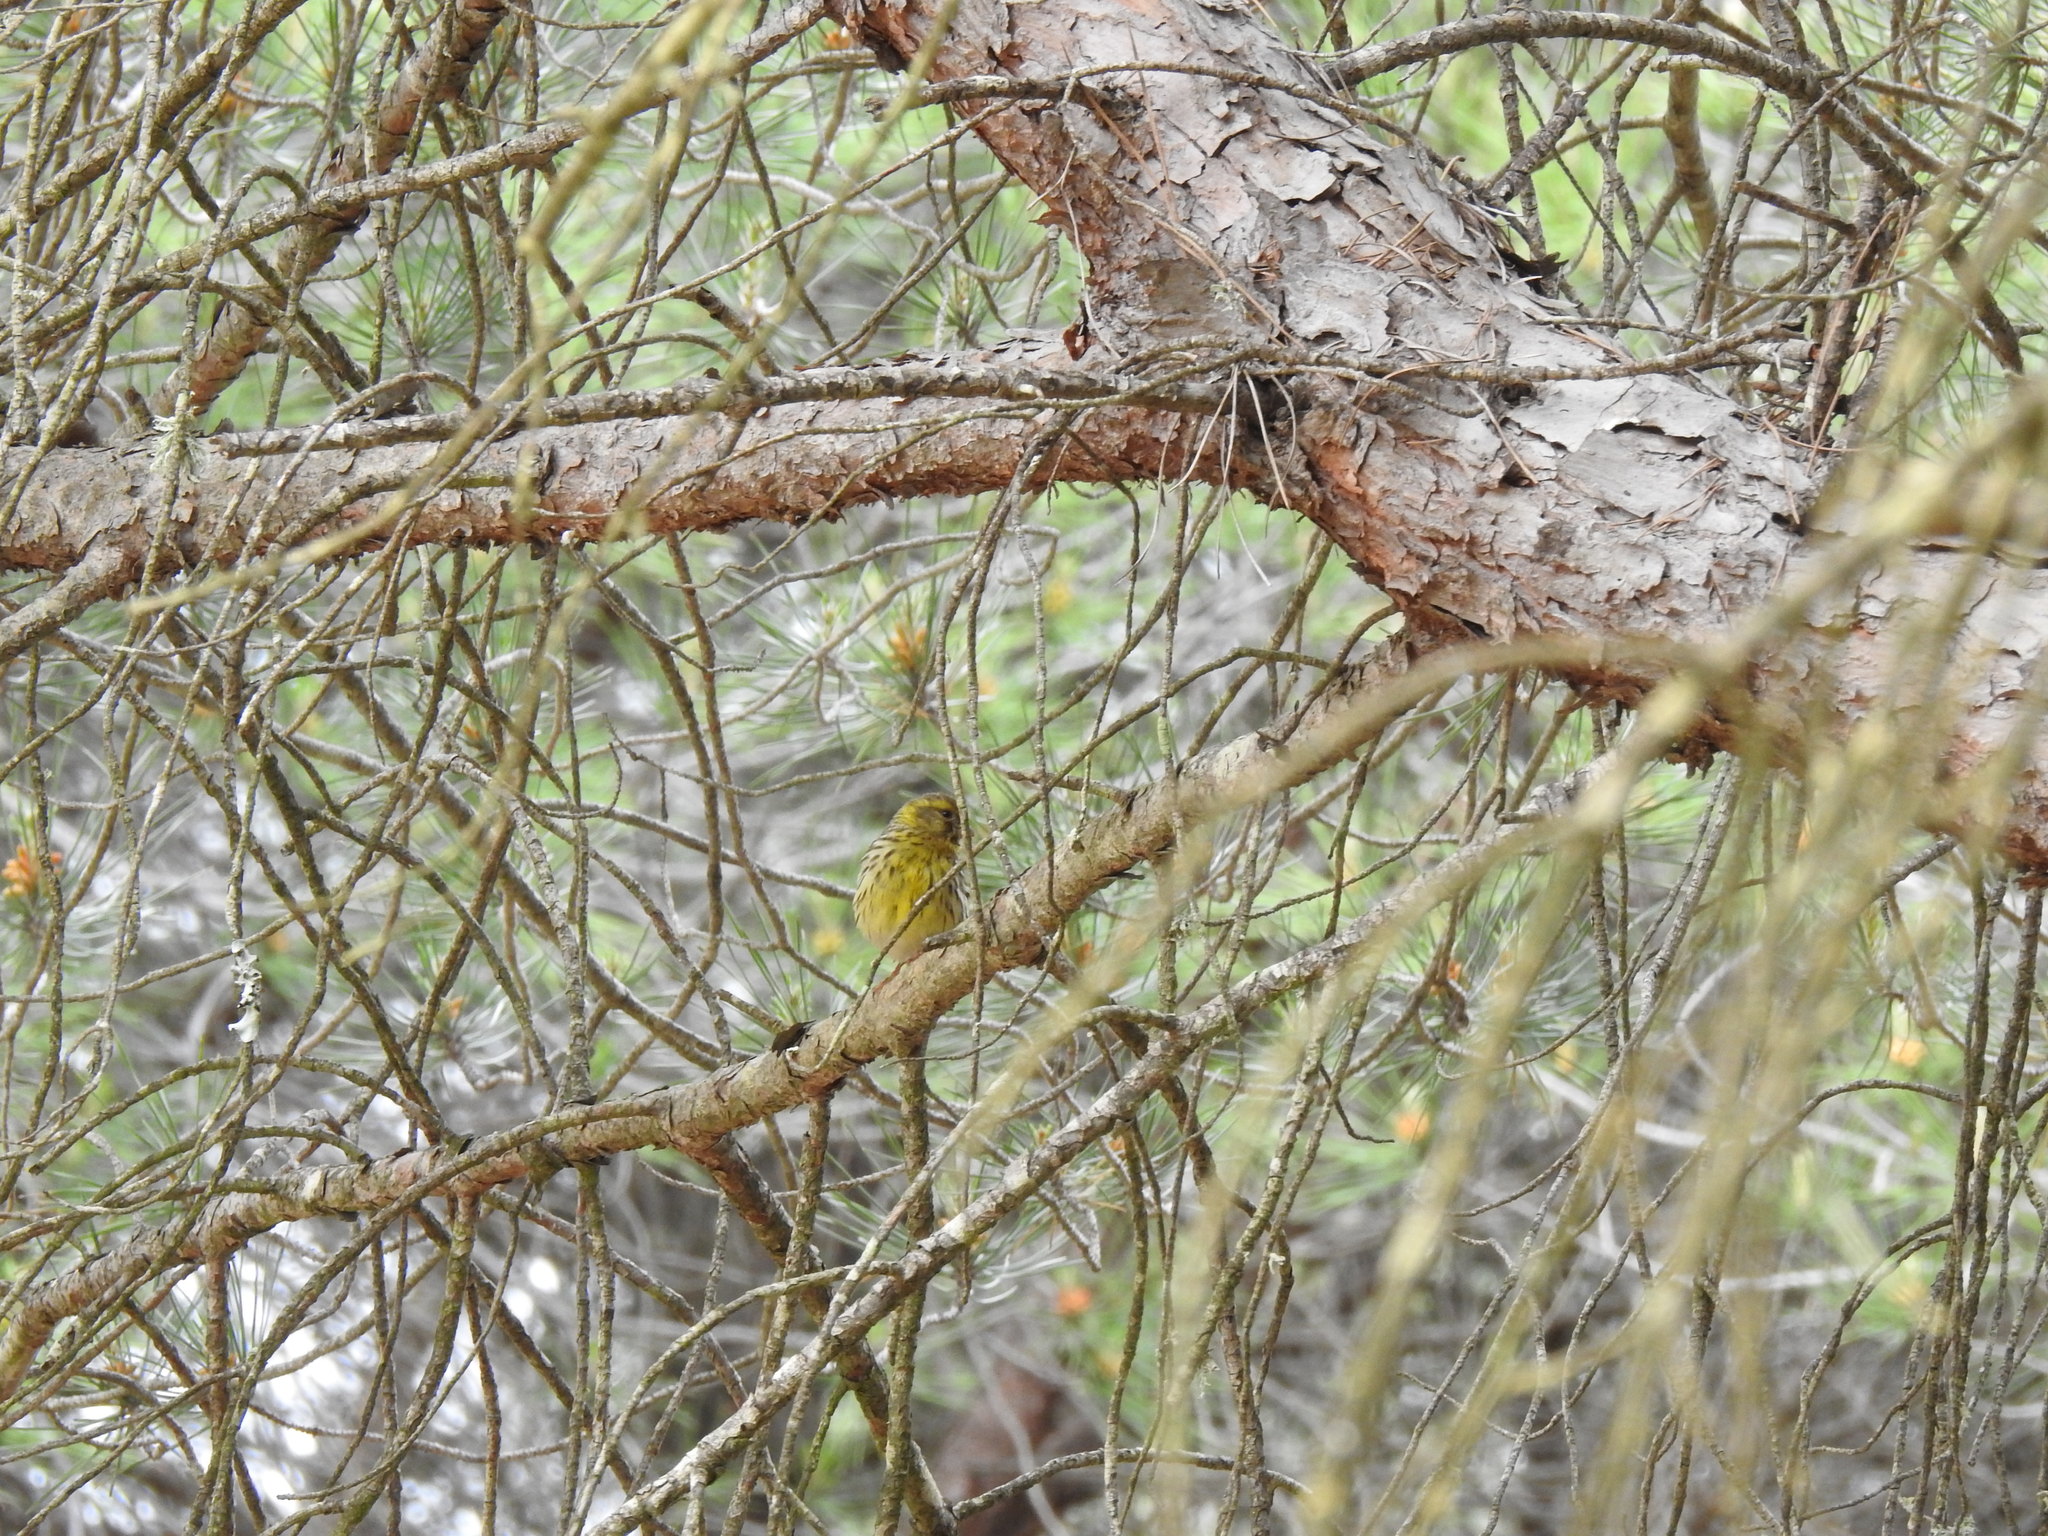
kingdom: Animalia
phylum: Chordata
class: Aves
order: Passeriformes
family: Fringillidae
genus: Serinus
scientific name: Serinus serinus
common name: European serin
